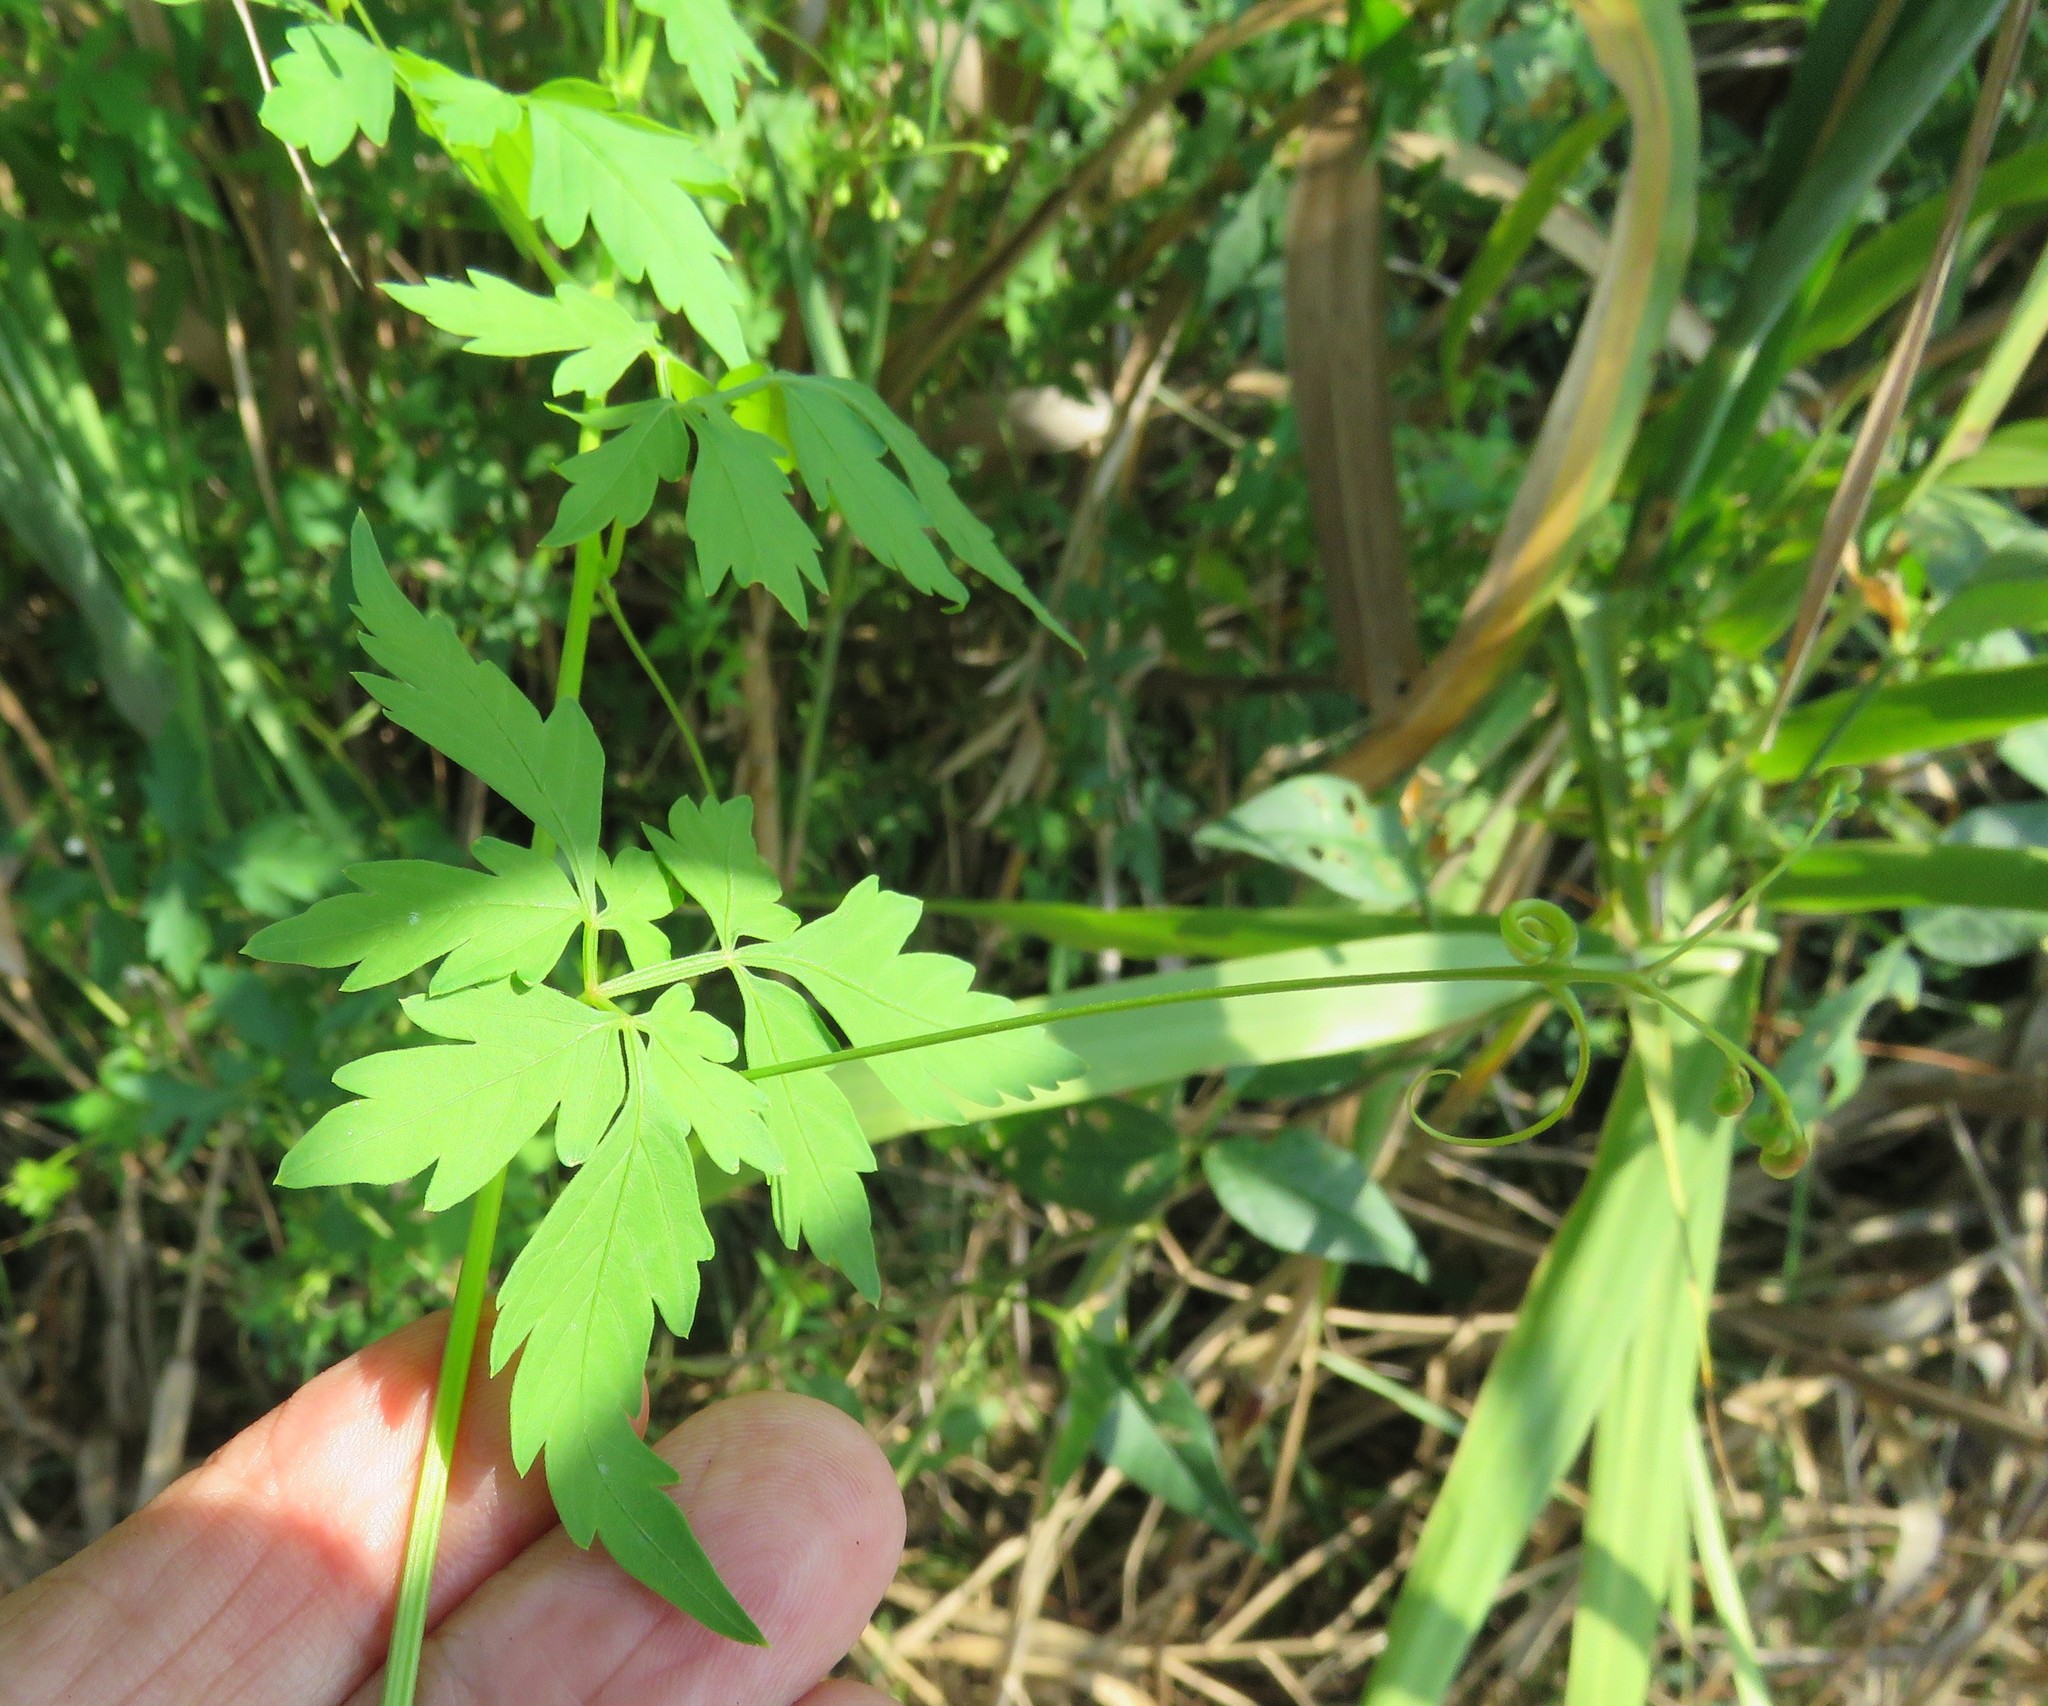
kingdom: Plantae
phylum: Tracheophyta
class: Magnoliopsida
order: Sapindales
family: Sapindaceae
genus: Cardiospermum
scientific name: Cardiospermum halicacabum
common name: Balloon vine
